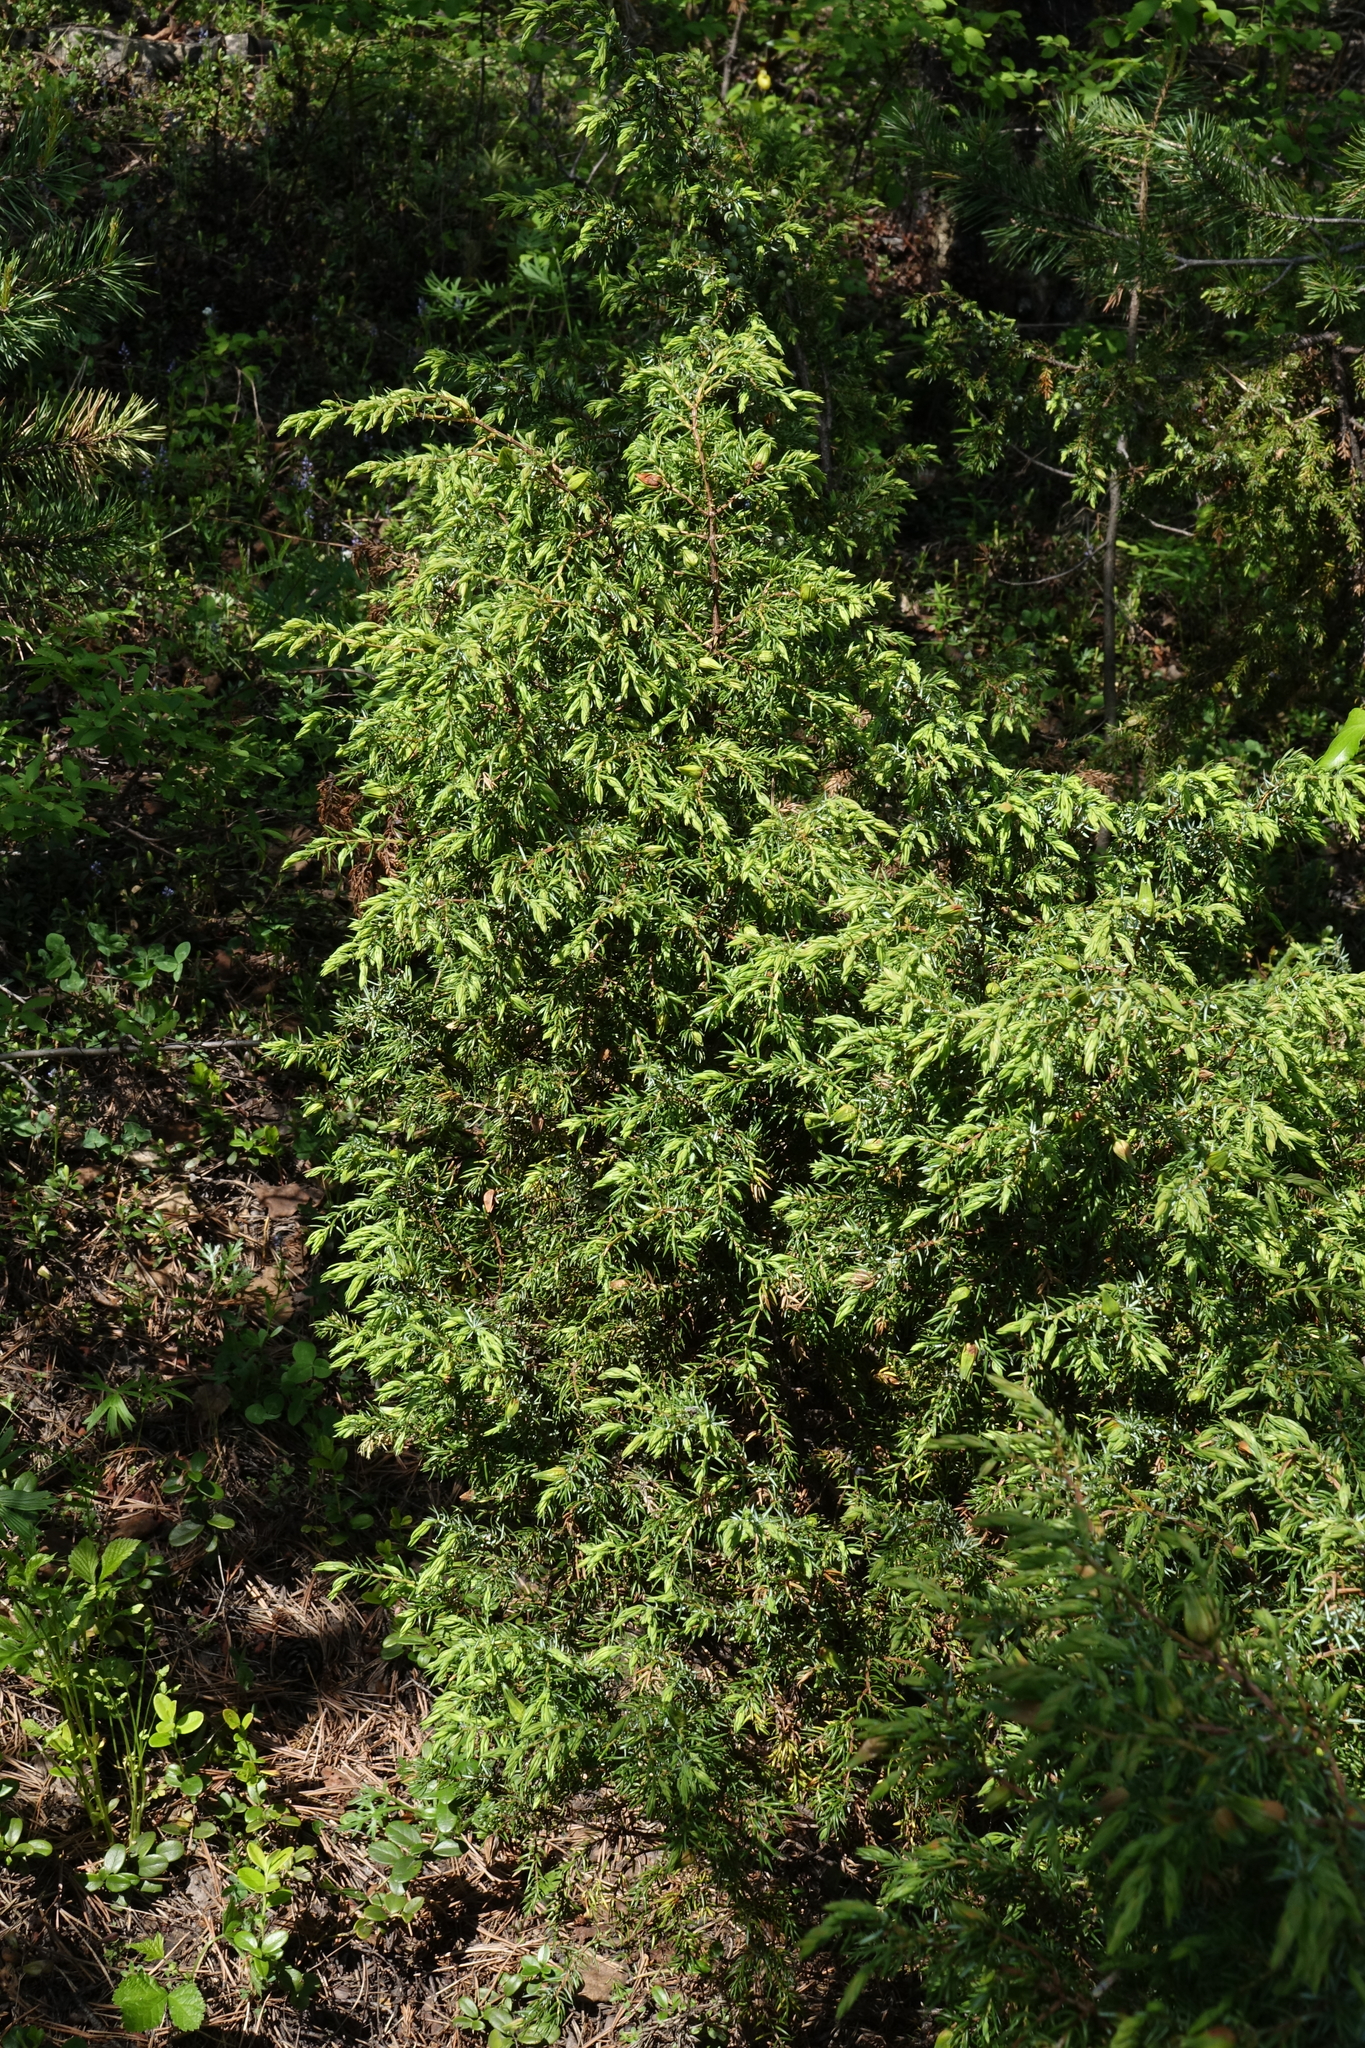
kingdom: Plantae
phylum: Tracheophyta
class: Pinopsida
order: Pinales
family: Cupressaceae
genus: Juniperus
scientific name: Juniperus communis
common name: Common juniper
